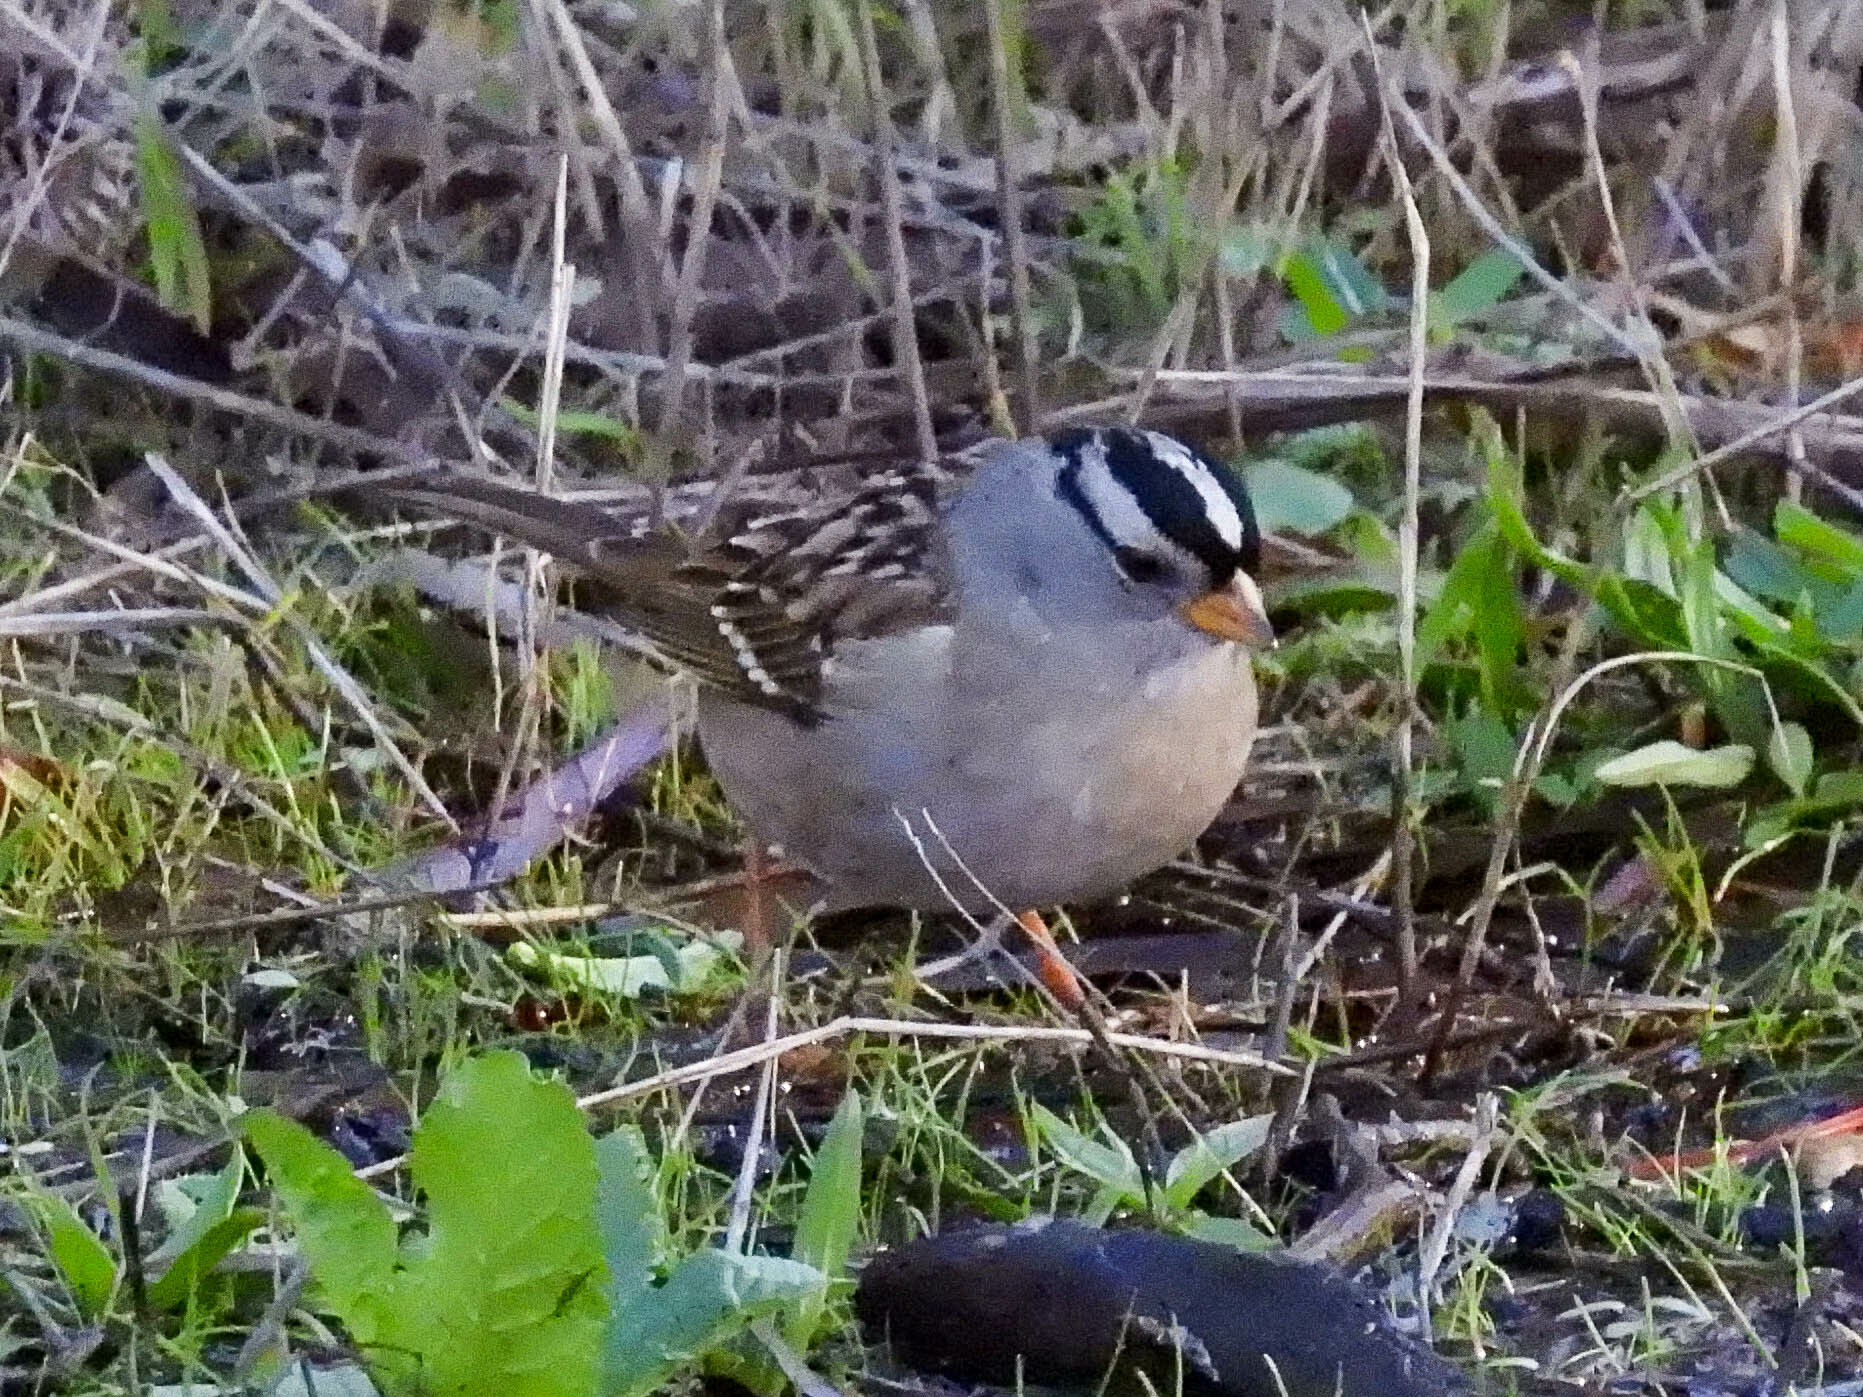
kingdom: Animalia
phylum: Chordata
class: Aves
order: Passeriformes
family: Passerellidae
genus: Zonotrichia
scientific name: Zonotrichia leucophrys
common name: White-crowned sparrow
